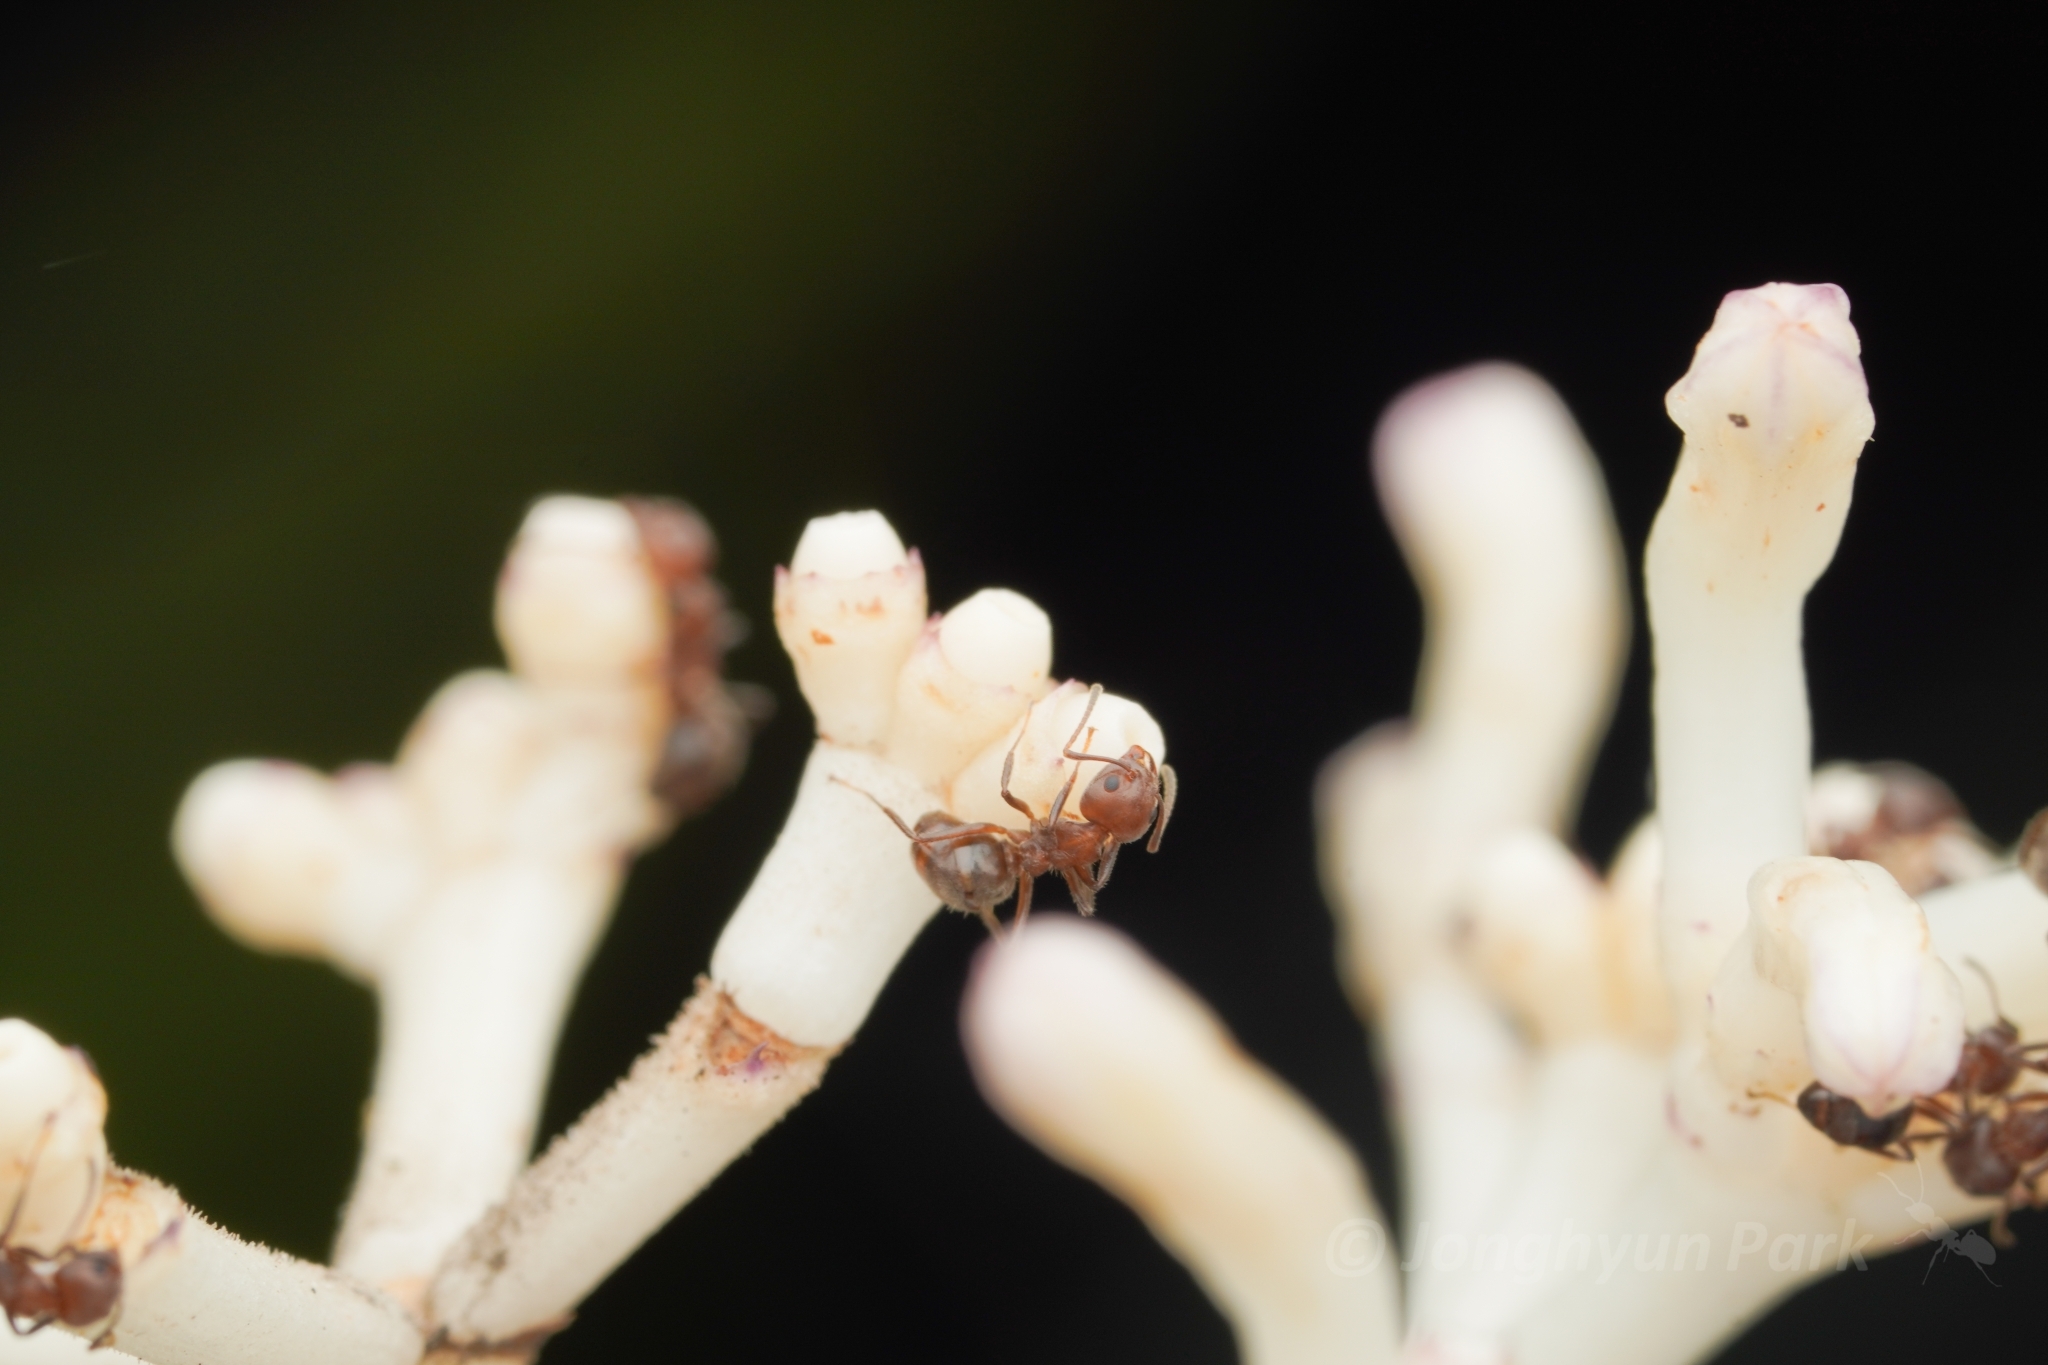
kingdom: Animalia
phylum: Arthropoda
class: Insecta
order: Hymenoptera
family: Formicidae
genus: Dolichoderus
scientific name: Dolichoderus thoracicus
